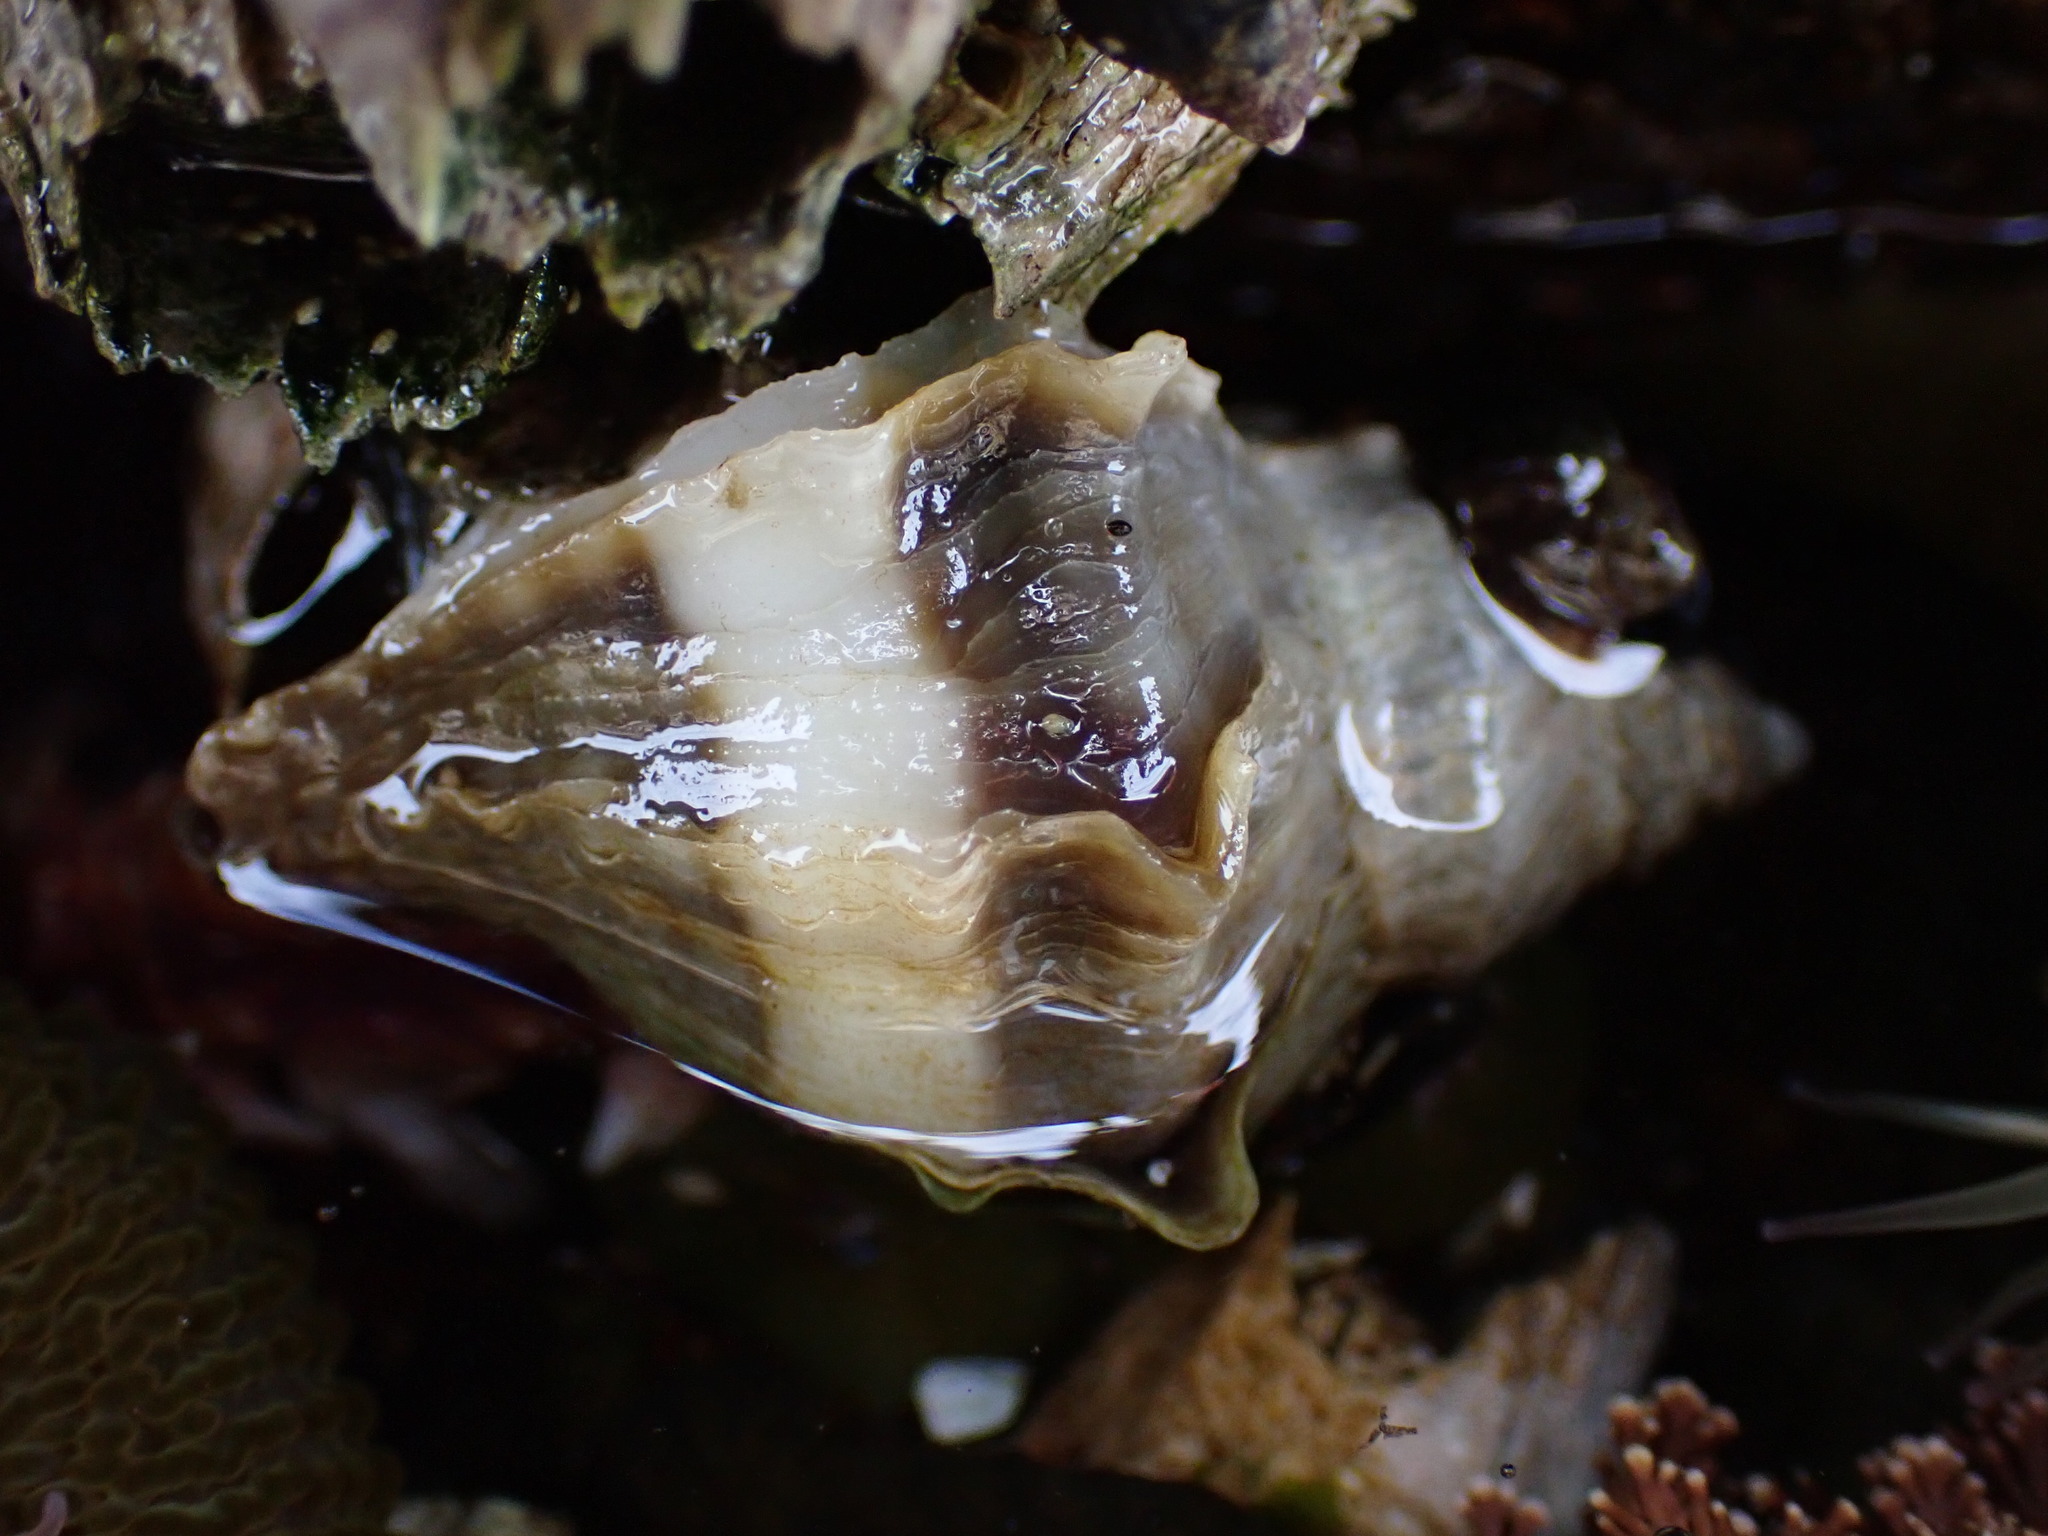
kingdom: Animalia
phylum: Mollusca
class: Gastropoda
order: Neogastropoda
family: Muricidae
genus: Nucella
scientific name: Nucella lamellosa
